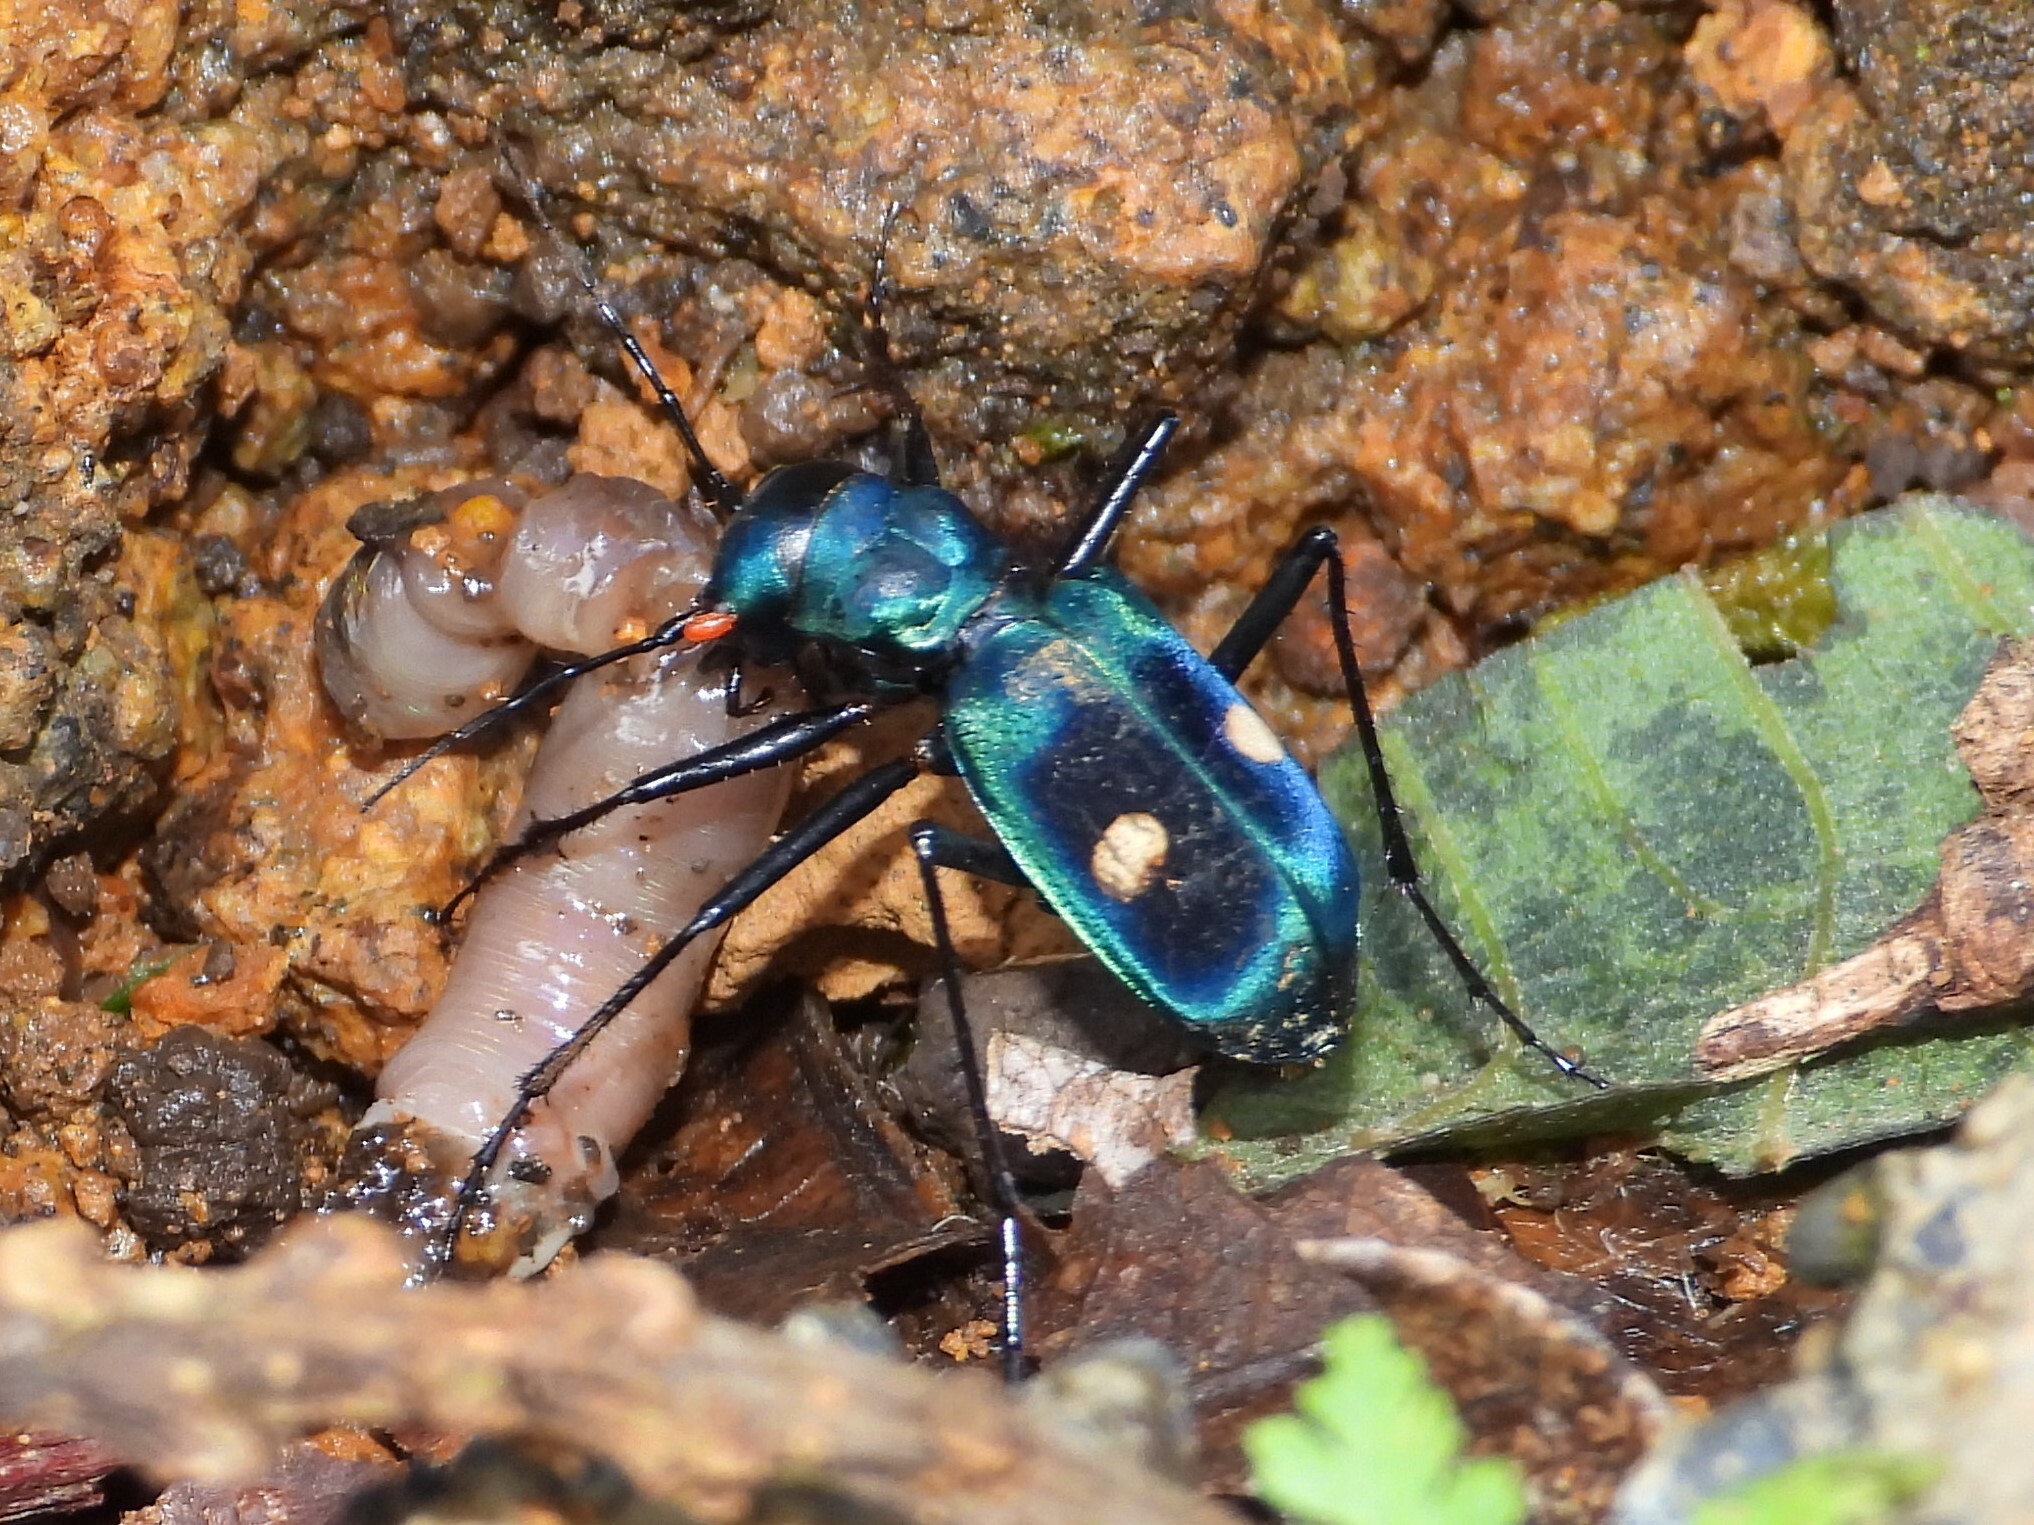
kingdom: Animalia
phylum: Arthropoda
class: Insecta
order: Coleoptera
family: Carabidae
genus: Pseudoxycheila
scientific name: Pseudoxycheila tarsalis
